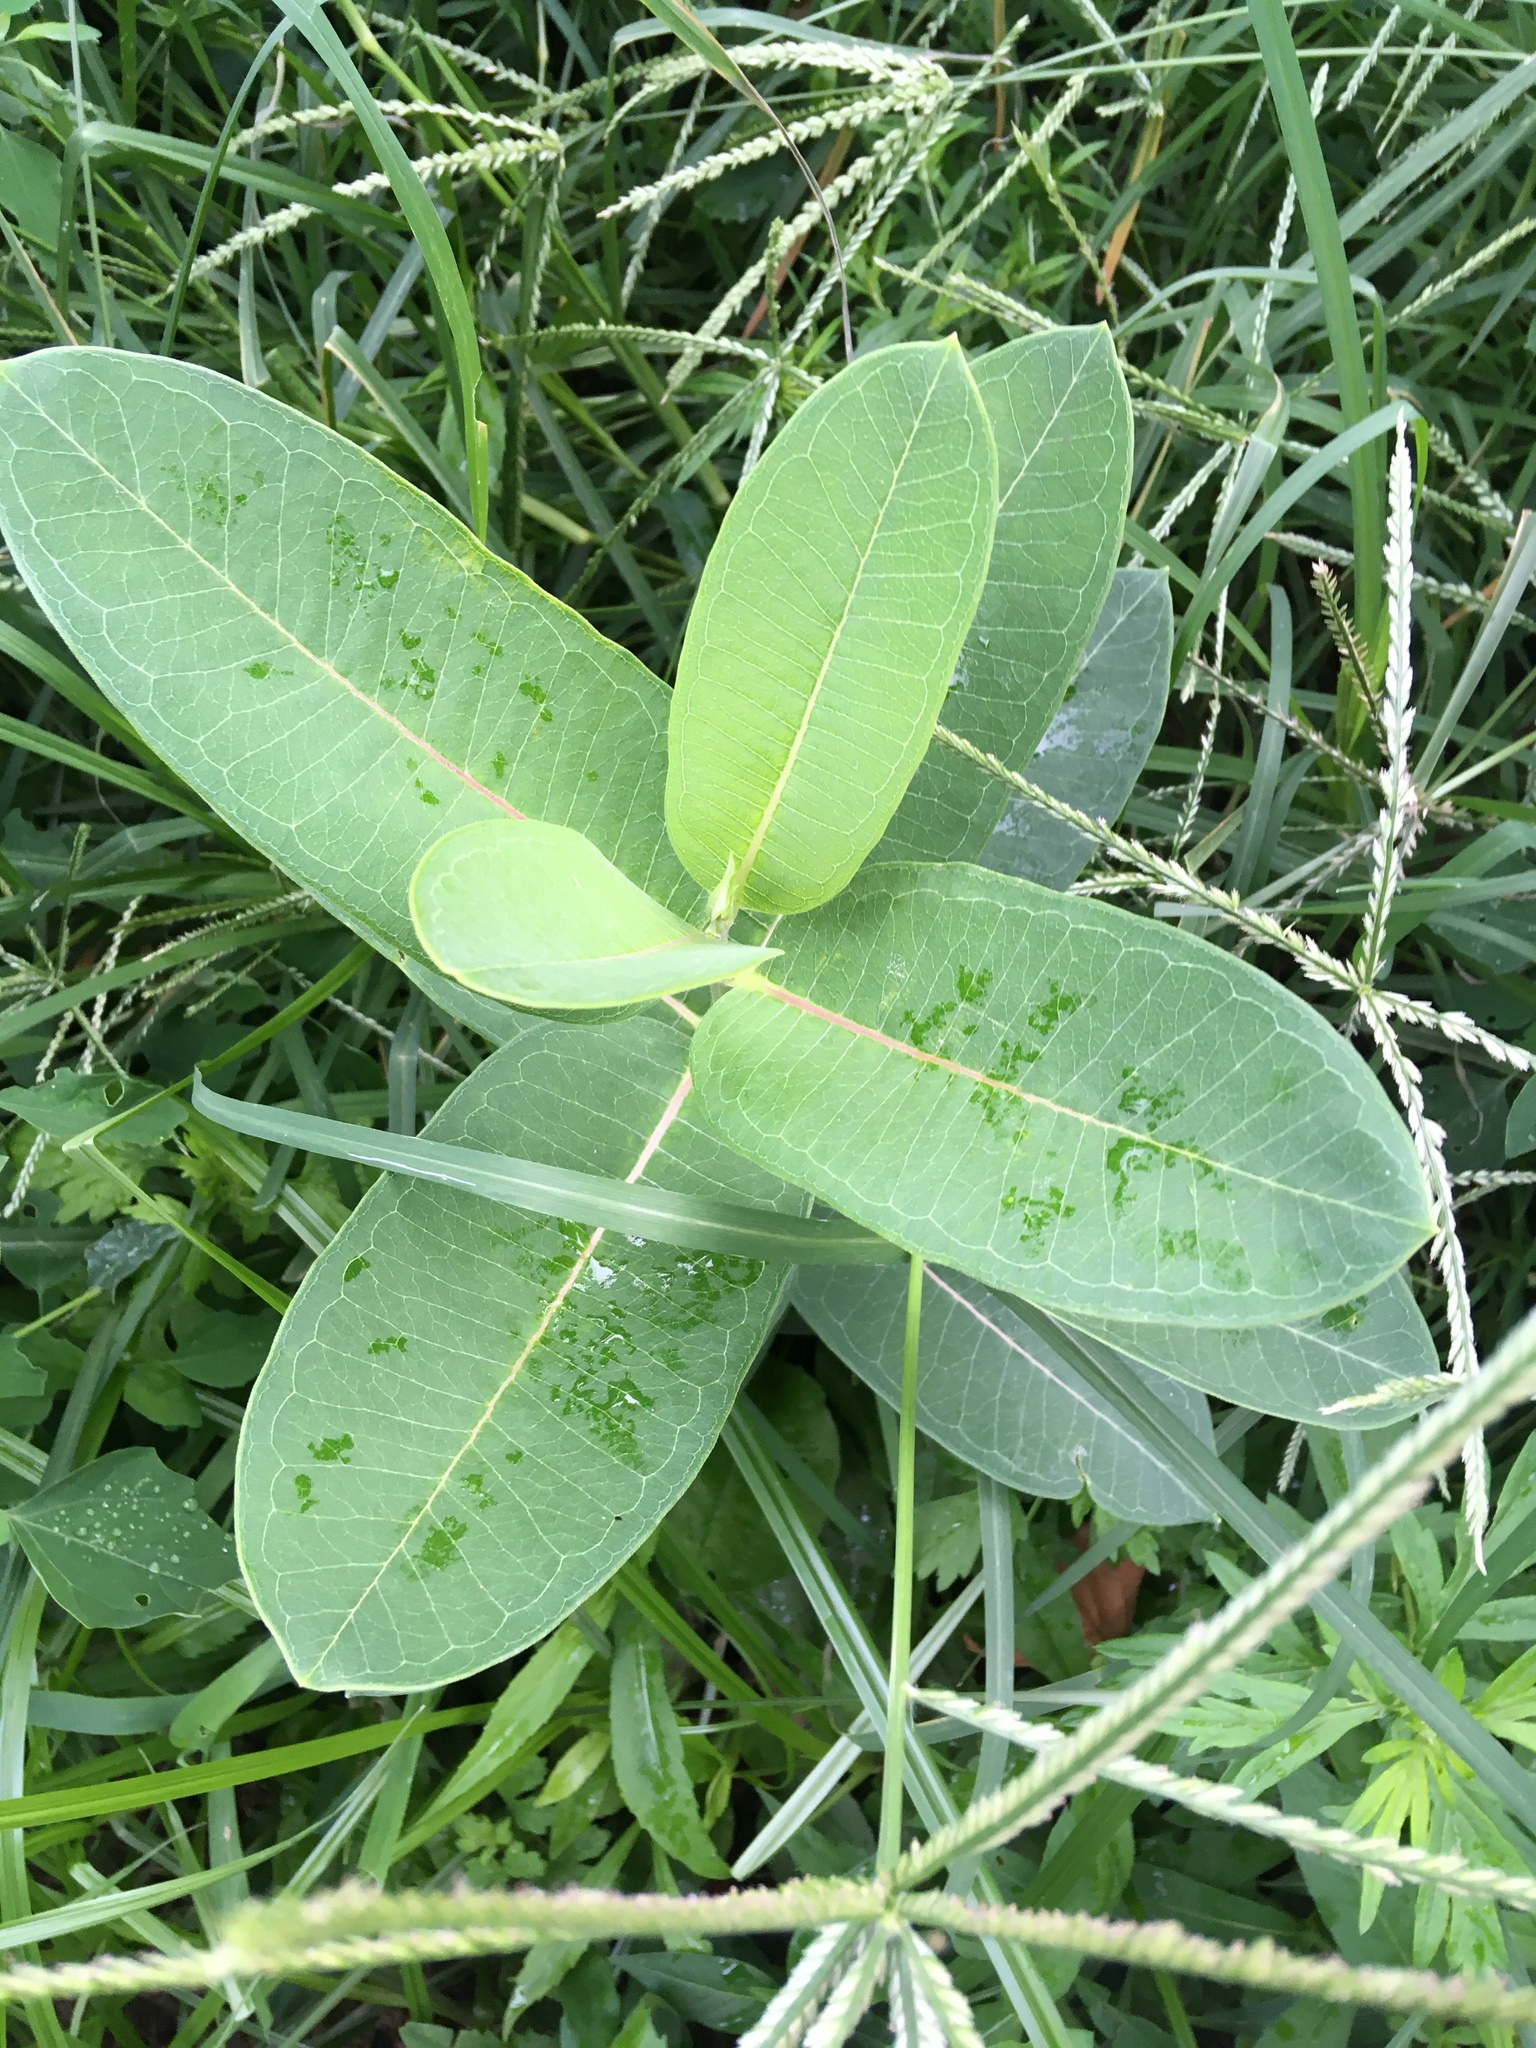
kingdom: Plantae
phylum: Tracheophyta
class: Magnoliopsida
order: Gentianales
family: Apocynaceae
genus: Asclepias
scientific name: Asclepias syriaca
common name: Common milkweed
